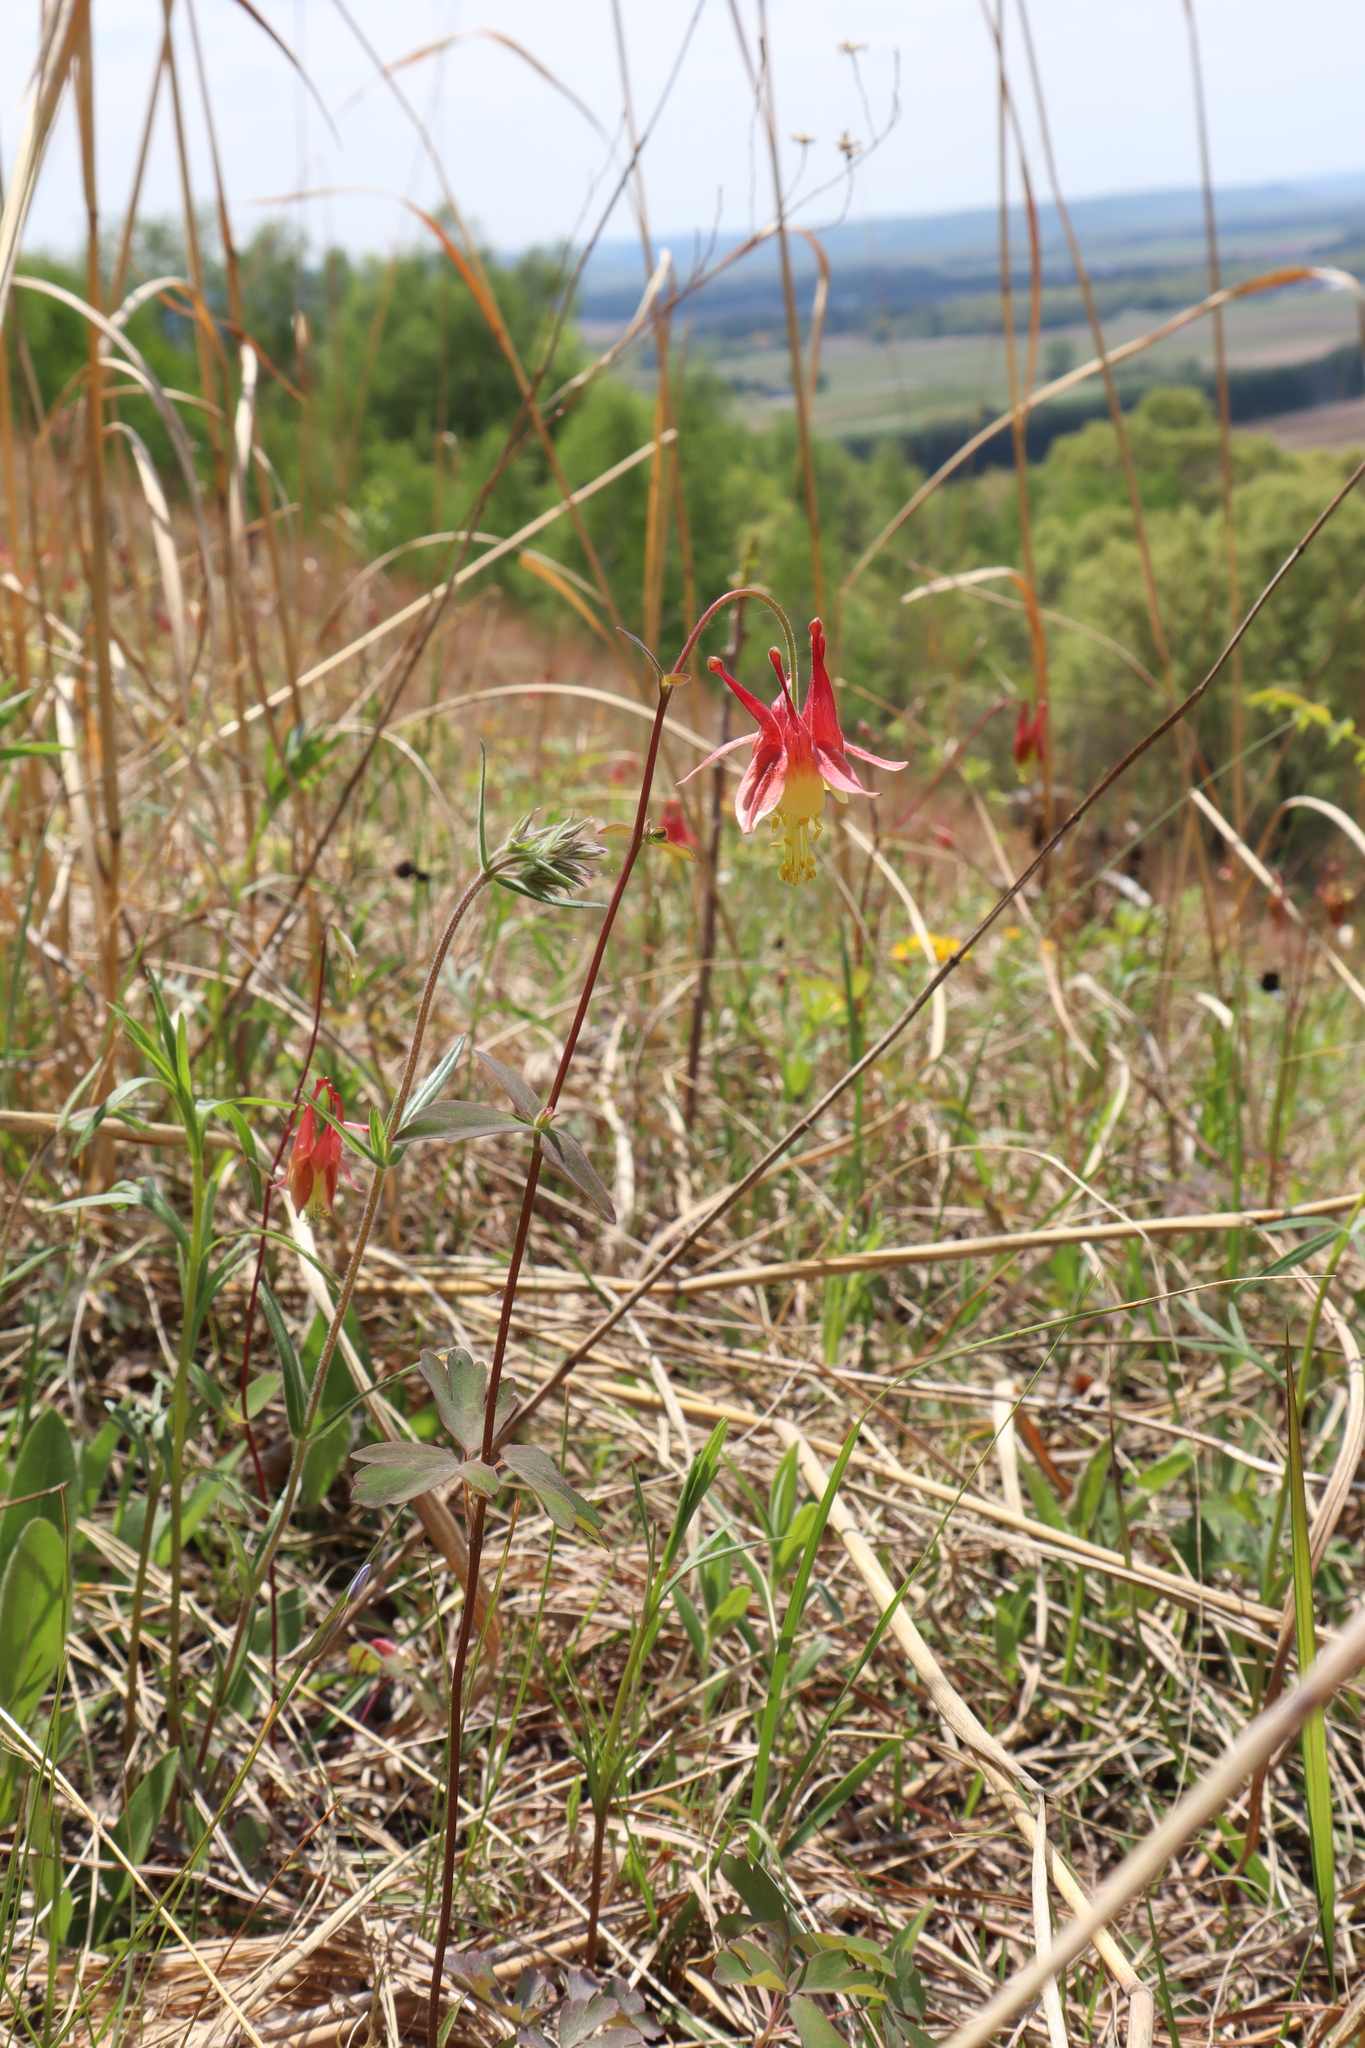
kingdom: Plantae
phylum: Tracheophyta
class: Magnoliopsida
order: Ranunculales
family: Ranunculaceae
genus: Aquilegia
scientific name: Aquilegia canadensis
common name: American columbine
